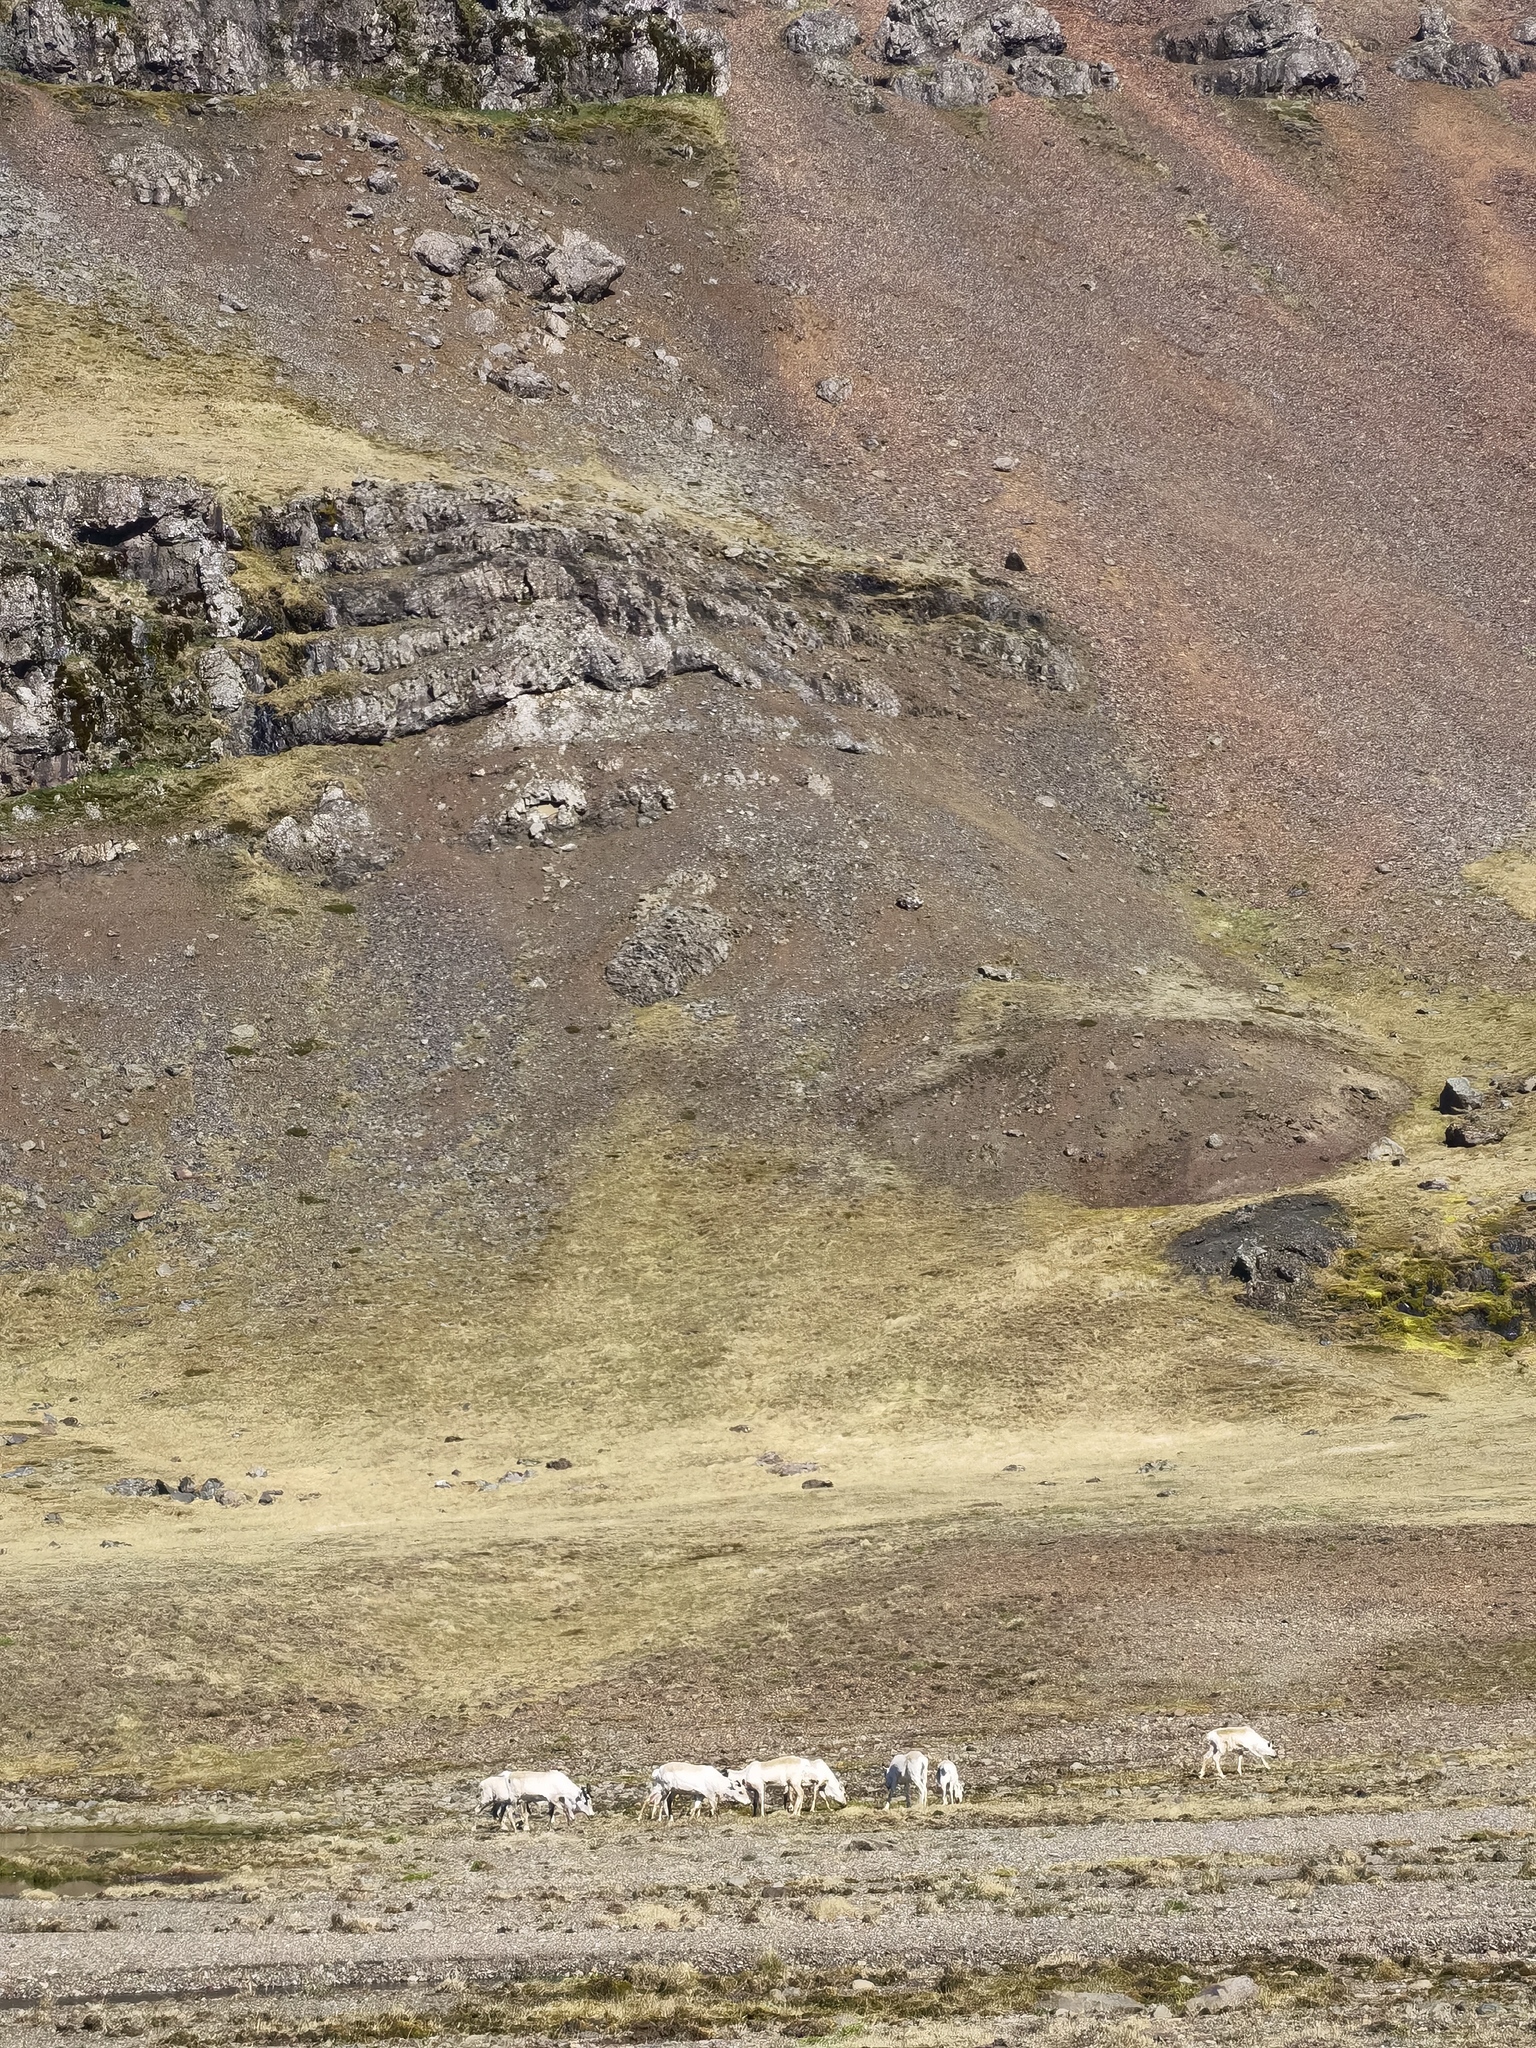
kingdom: Animalia
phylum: Chordata
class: Mammalia
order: Artiodactyla
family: Cervidae
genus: Rangifer
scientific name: Rangifer tarandus
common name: Reindeer
